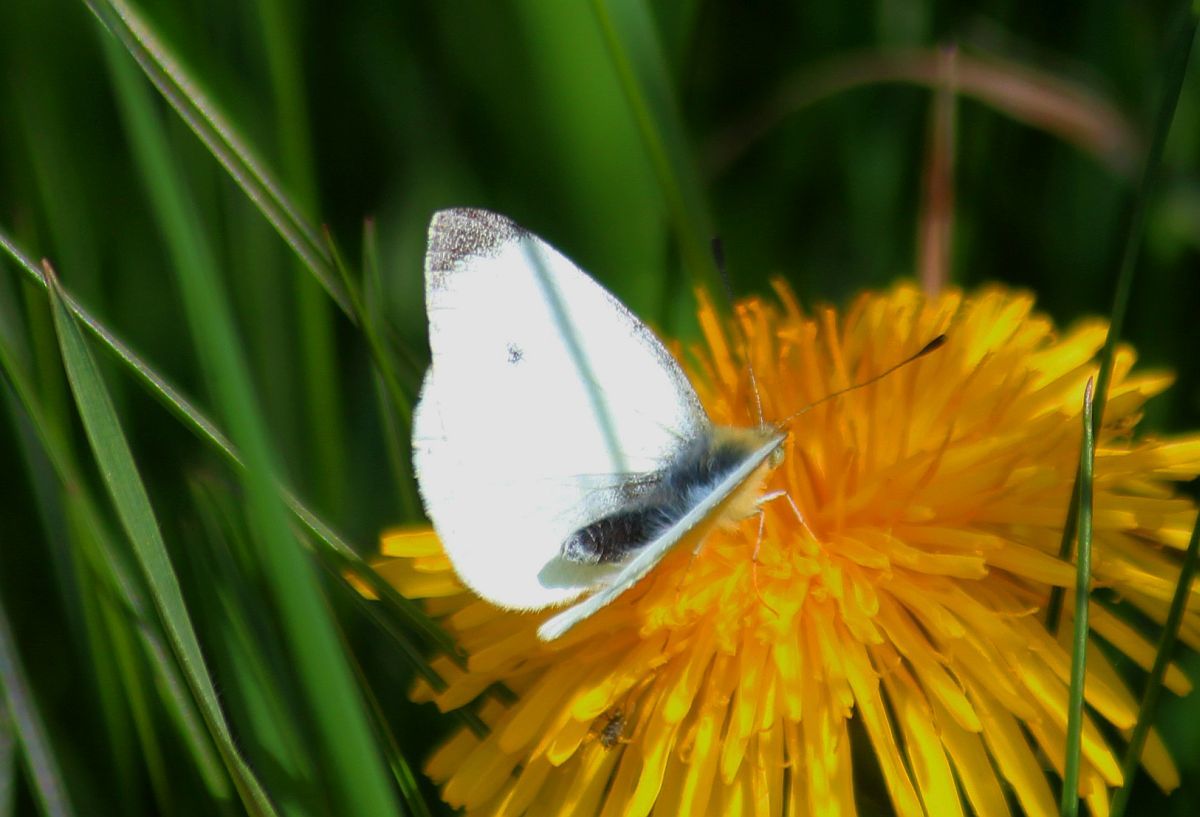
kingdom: Animalia
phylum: Arthropoda
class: Insecta
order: Lepidoptera
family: Pieridae
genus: Pieris
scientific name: Pieris rapae
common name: Small white
